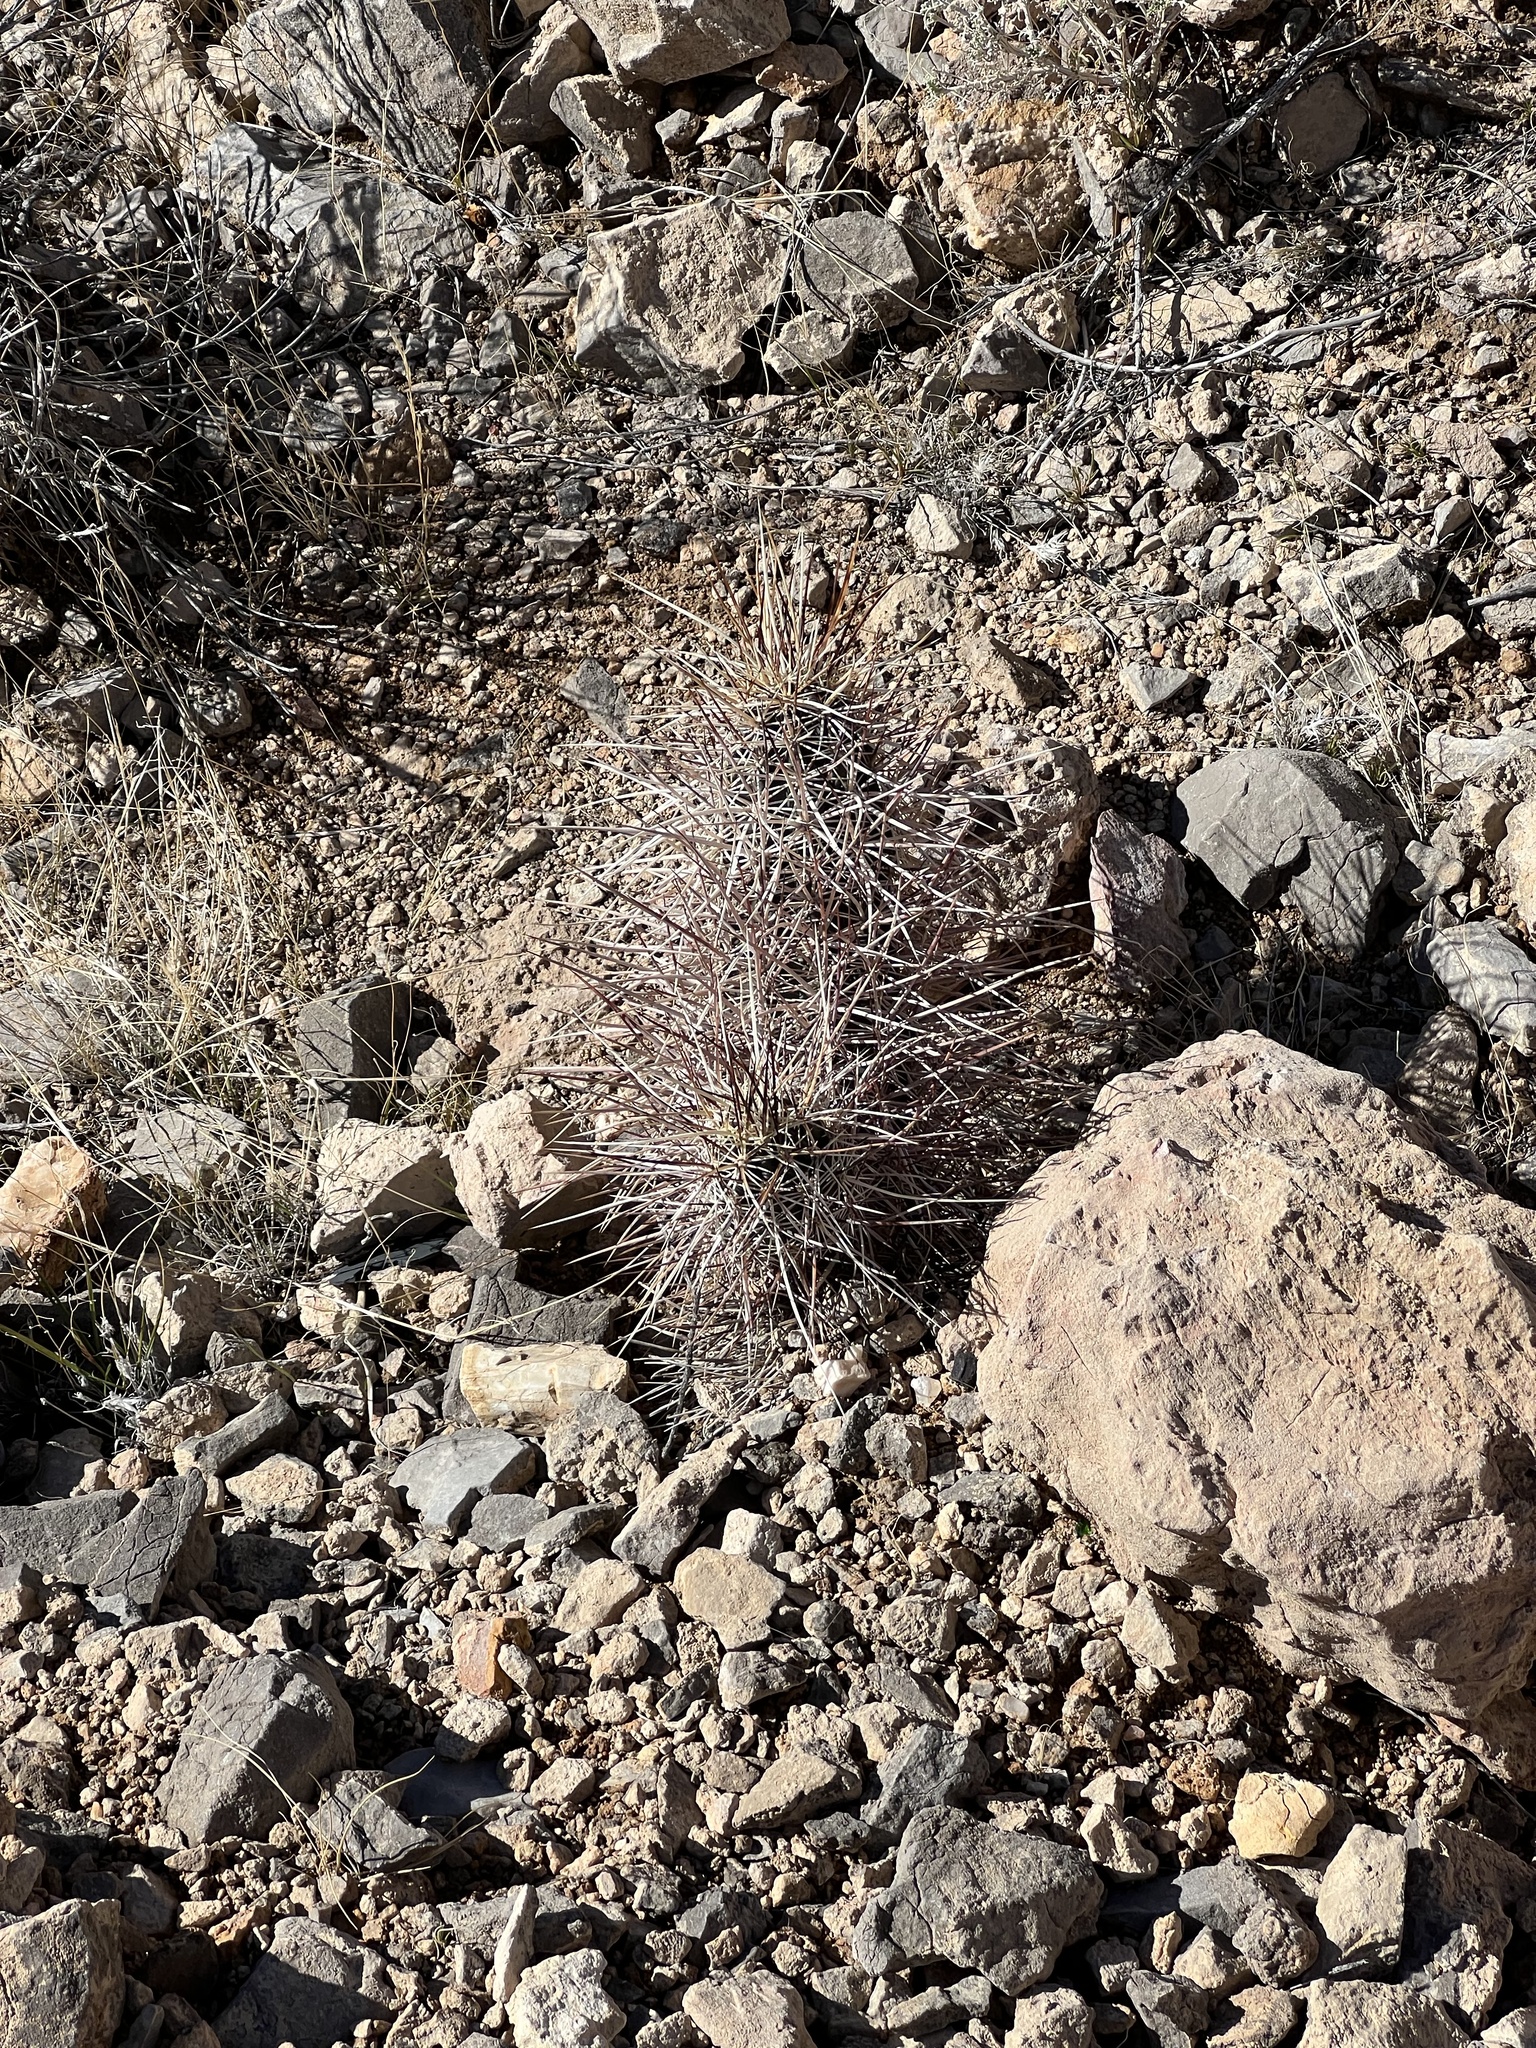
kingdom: Plantae
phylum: Tracheophyta
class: Magnoliopsida
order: Caryophyllales
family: Cactaceae
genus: Echinocereus
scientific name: Echinocereus engelmannii
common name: Engelmann's hedgehog cactus
